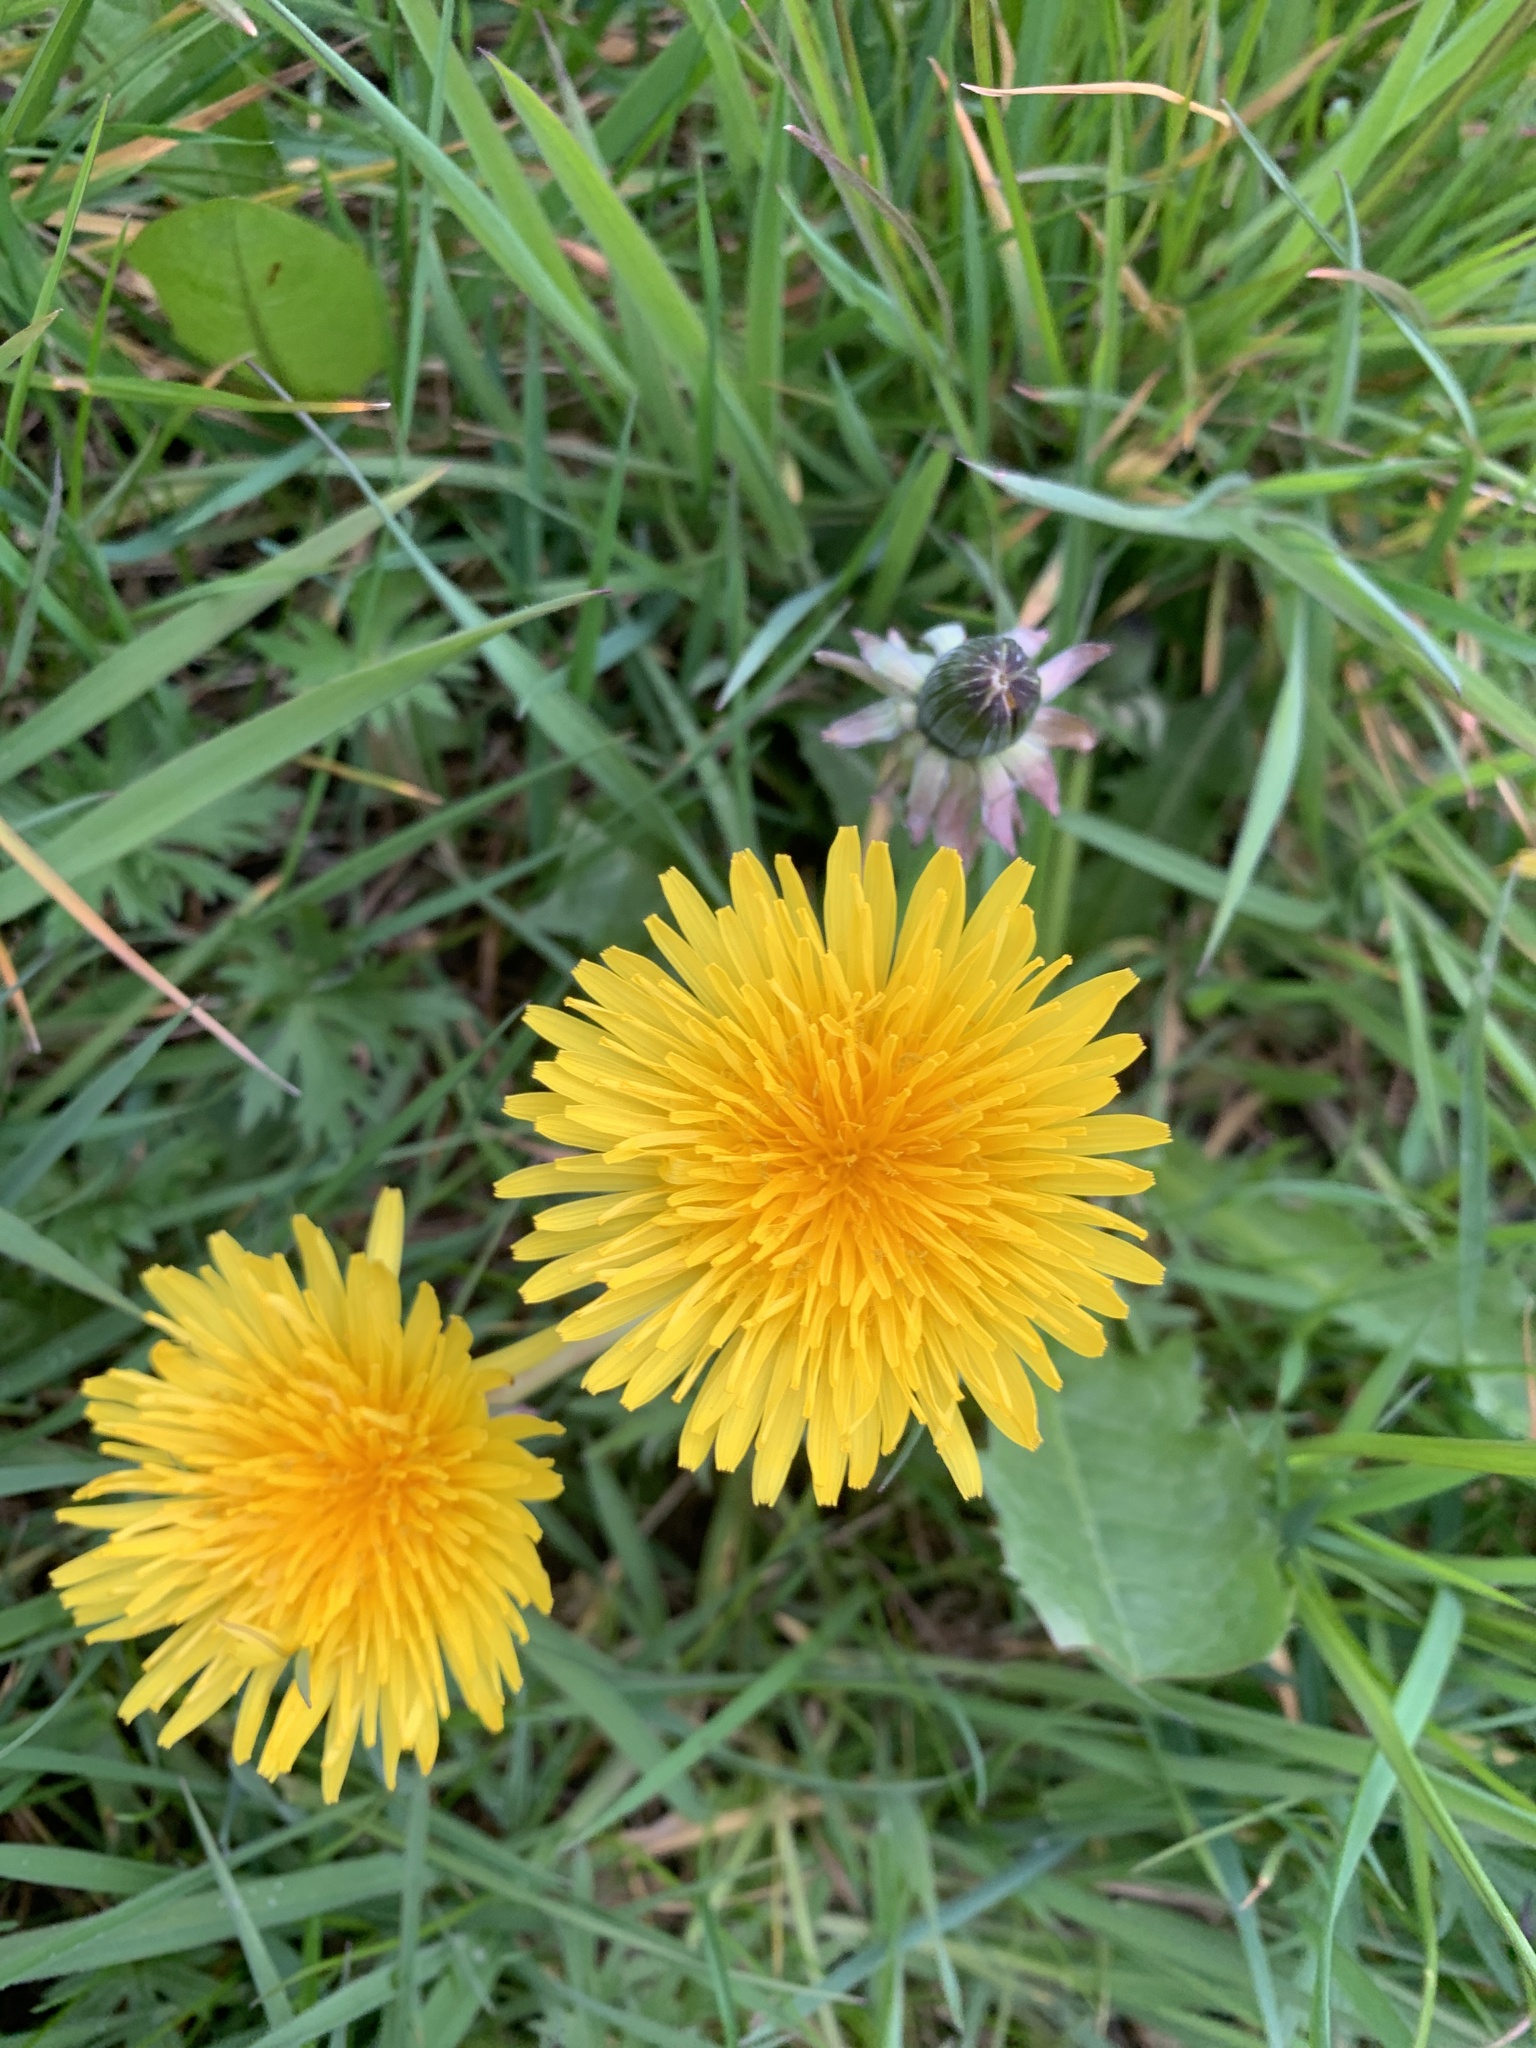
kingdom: Plantae
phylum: Tracheophyta
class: Magnoliopsida
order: Asterales
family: Asteraceae
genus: Taraxacum
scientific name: Taraxacum officinale
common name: Common dandelion
